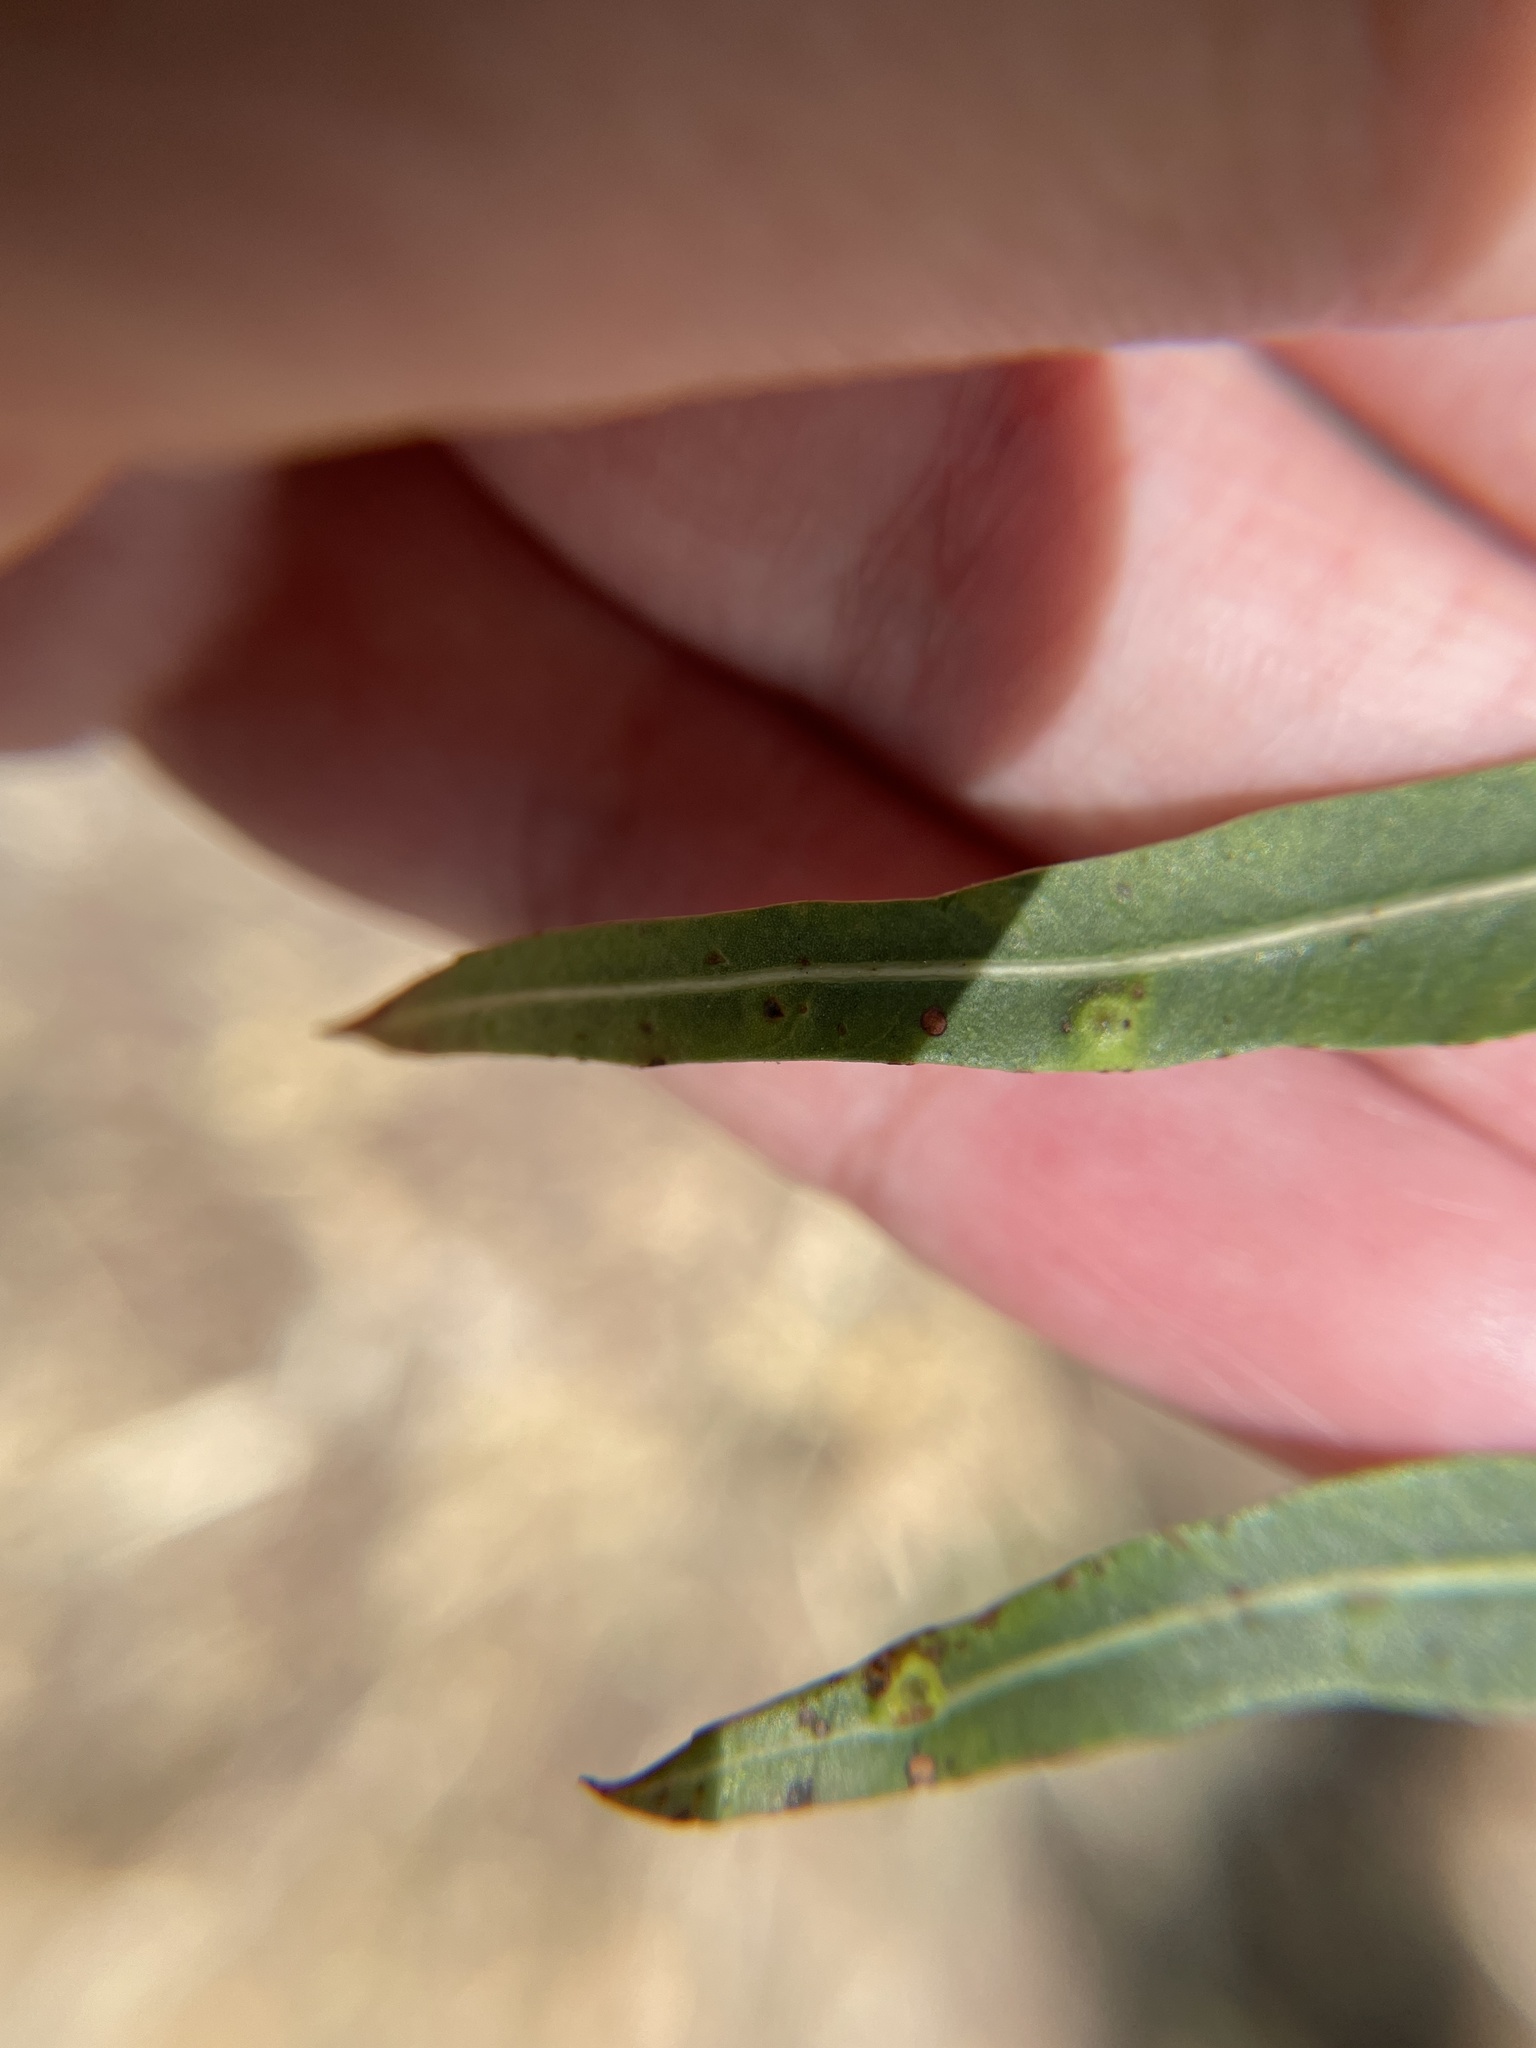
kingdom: Animalia
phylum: Arthropoda
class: Insecta
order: Hemiptera
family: Calophyidae
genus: Calophya
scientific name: Calophya schini
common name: Pepper tree psyllid
